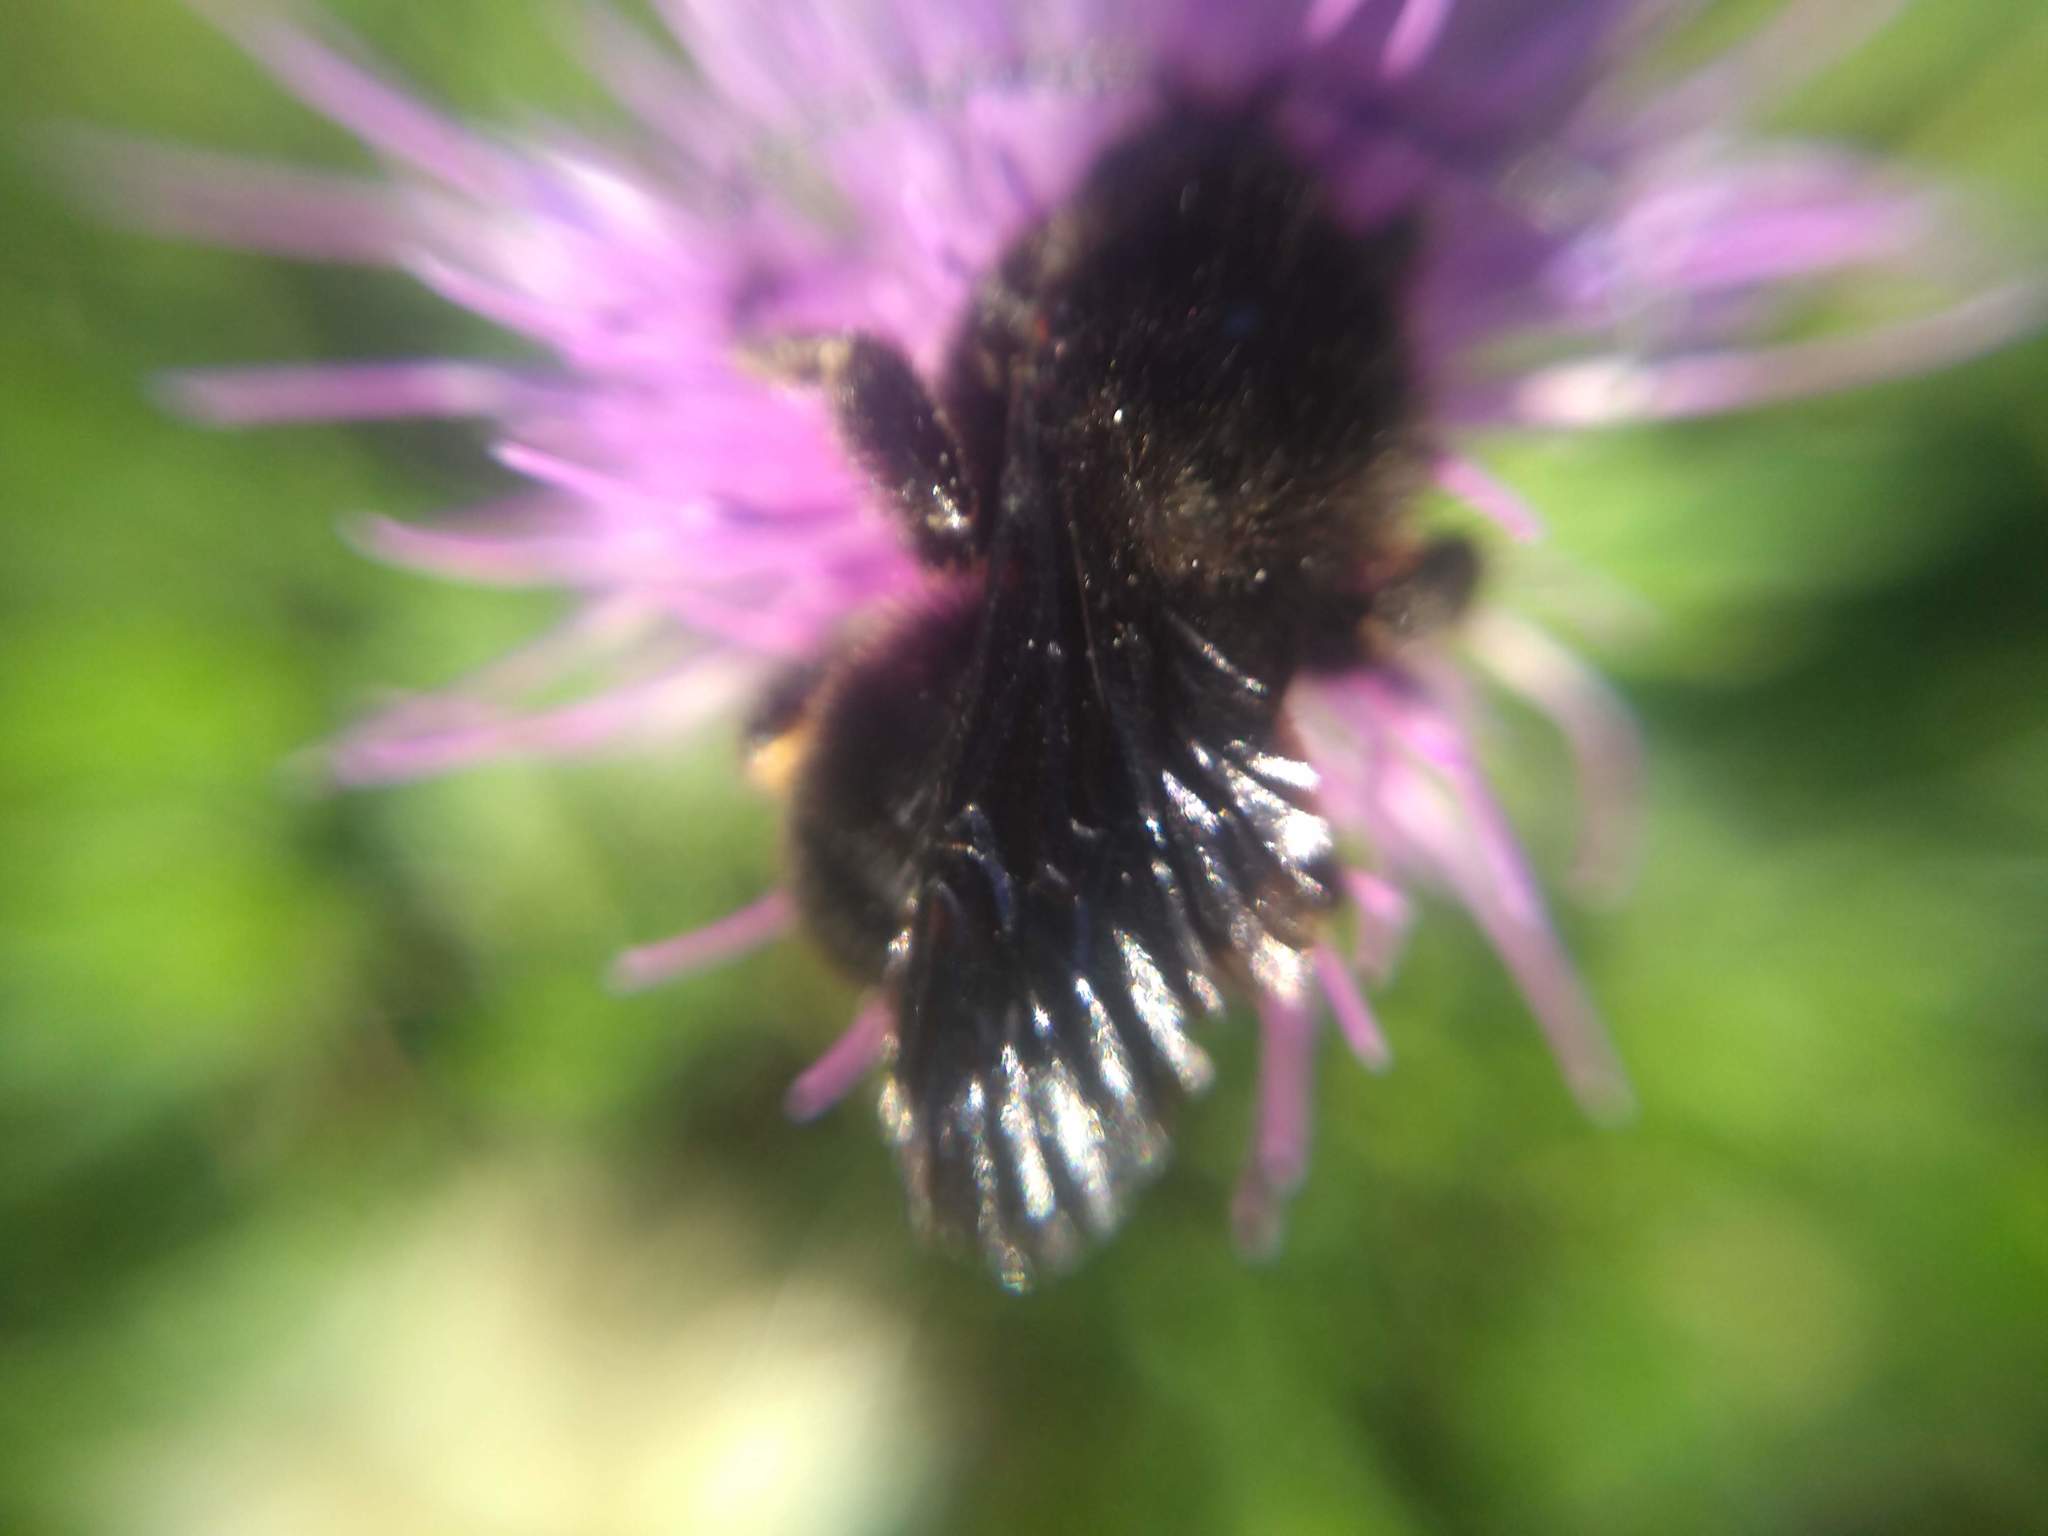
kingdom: Animalia
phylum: Arthropoda
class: Insecta
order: Hymenoptera
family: Apidae
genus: Bombus
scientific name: Bombus pauloensis
